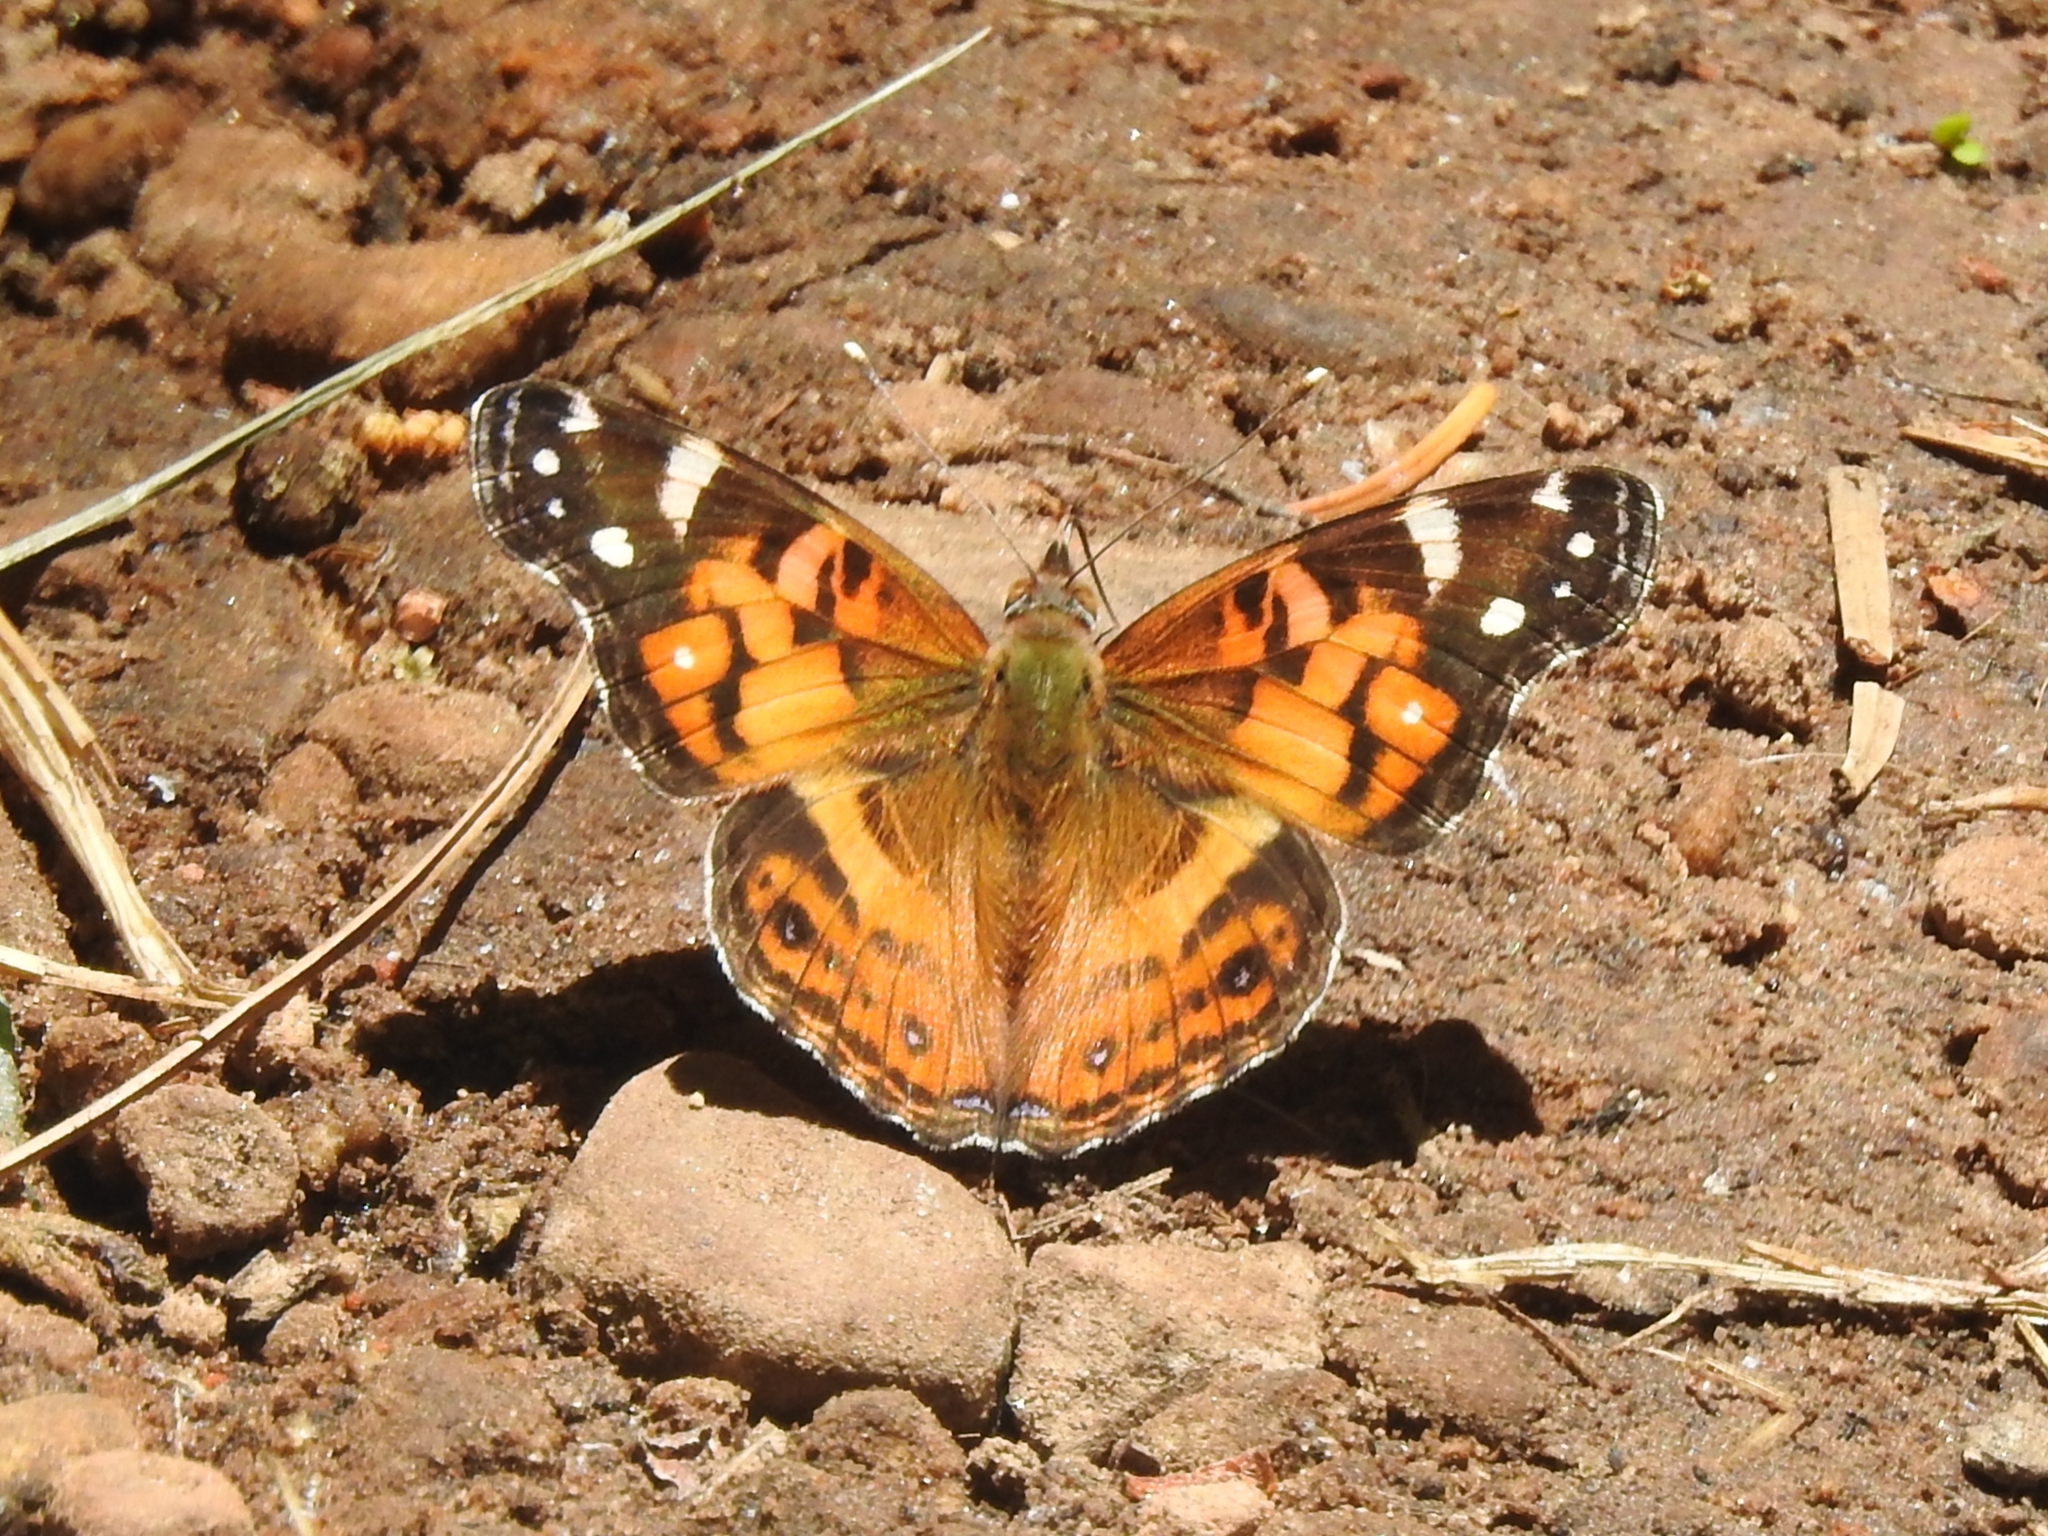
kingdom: Animalia
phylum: Arthropoda
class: Insecta
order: Lepidoptera
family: Nymphalidae
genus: Vanessa
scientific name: Vanessa virginiensis
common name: American lady
